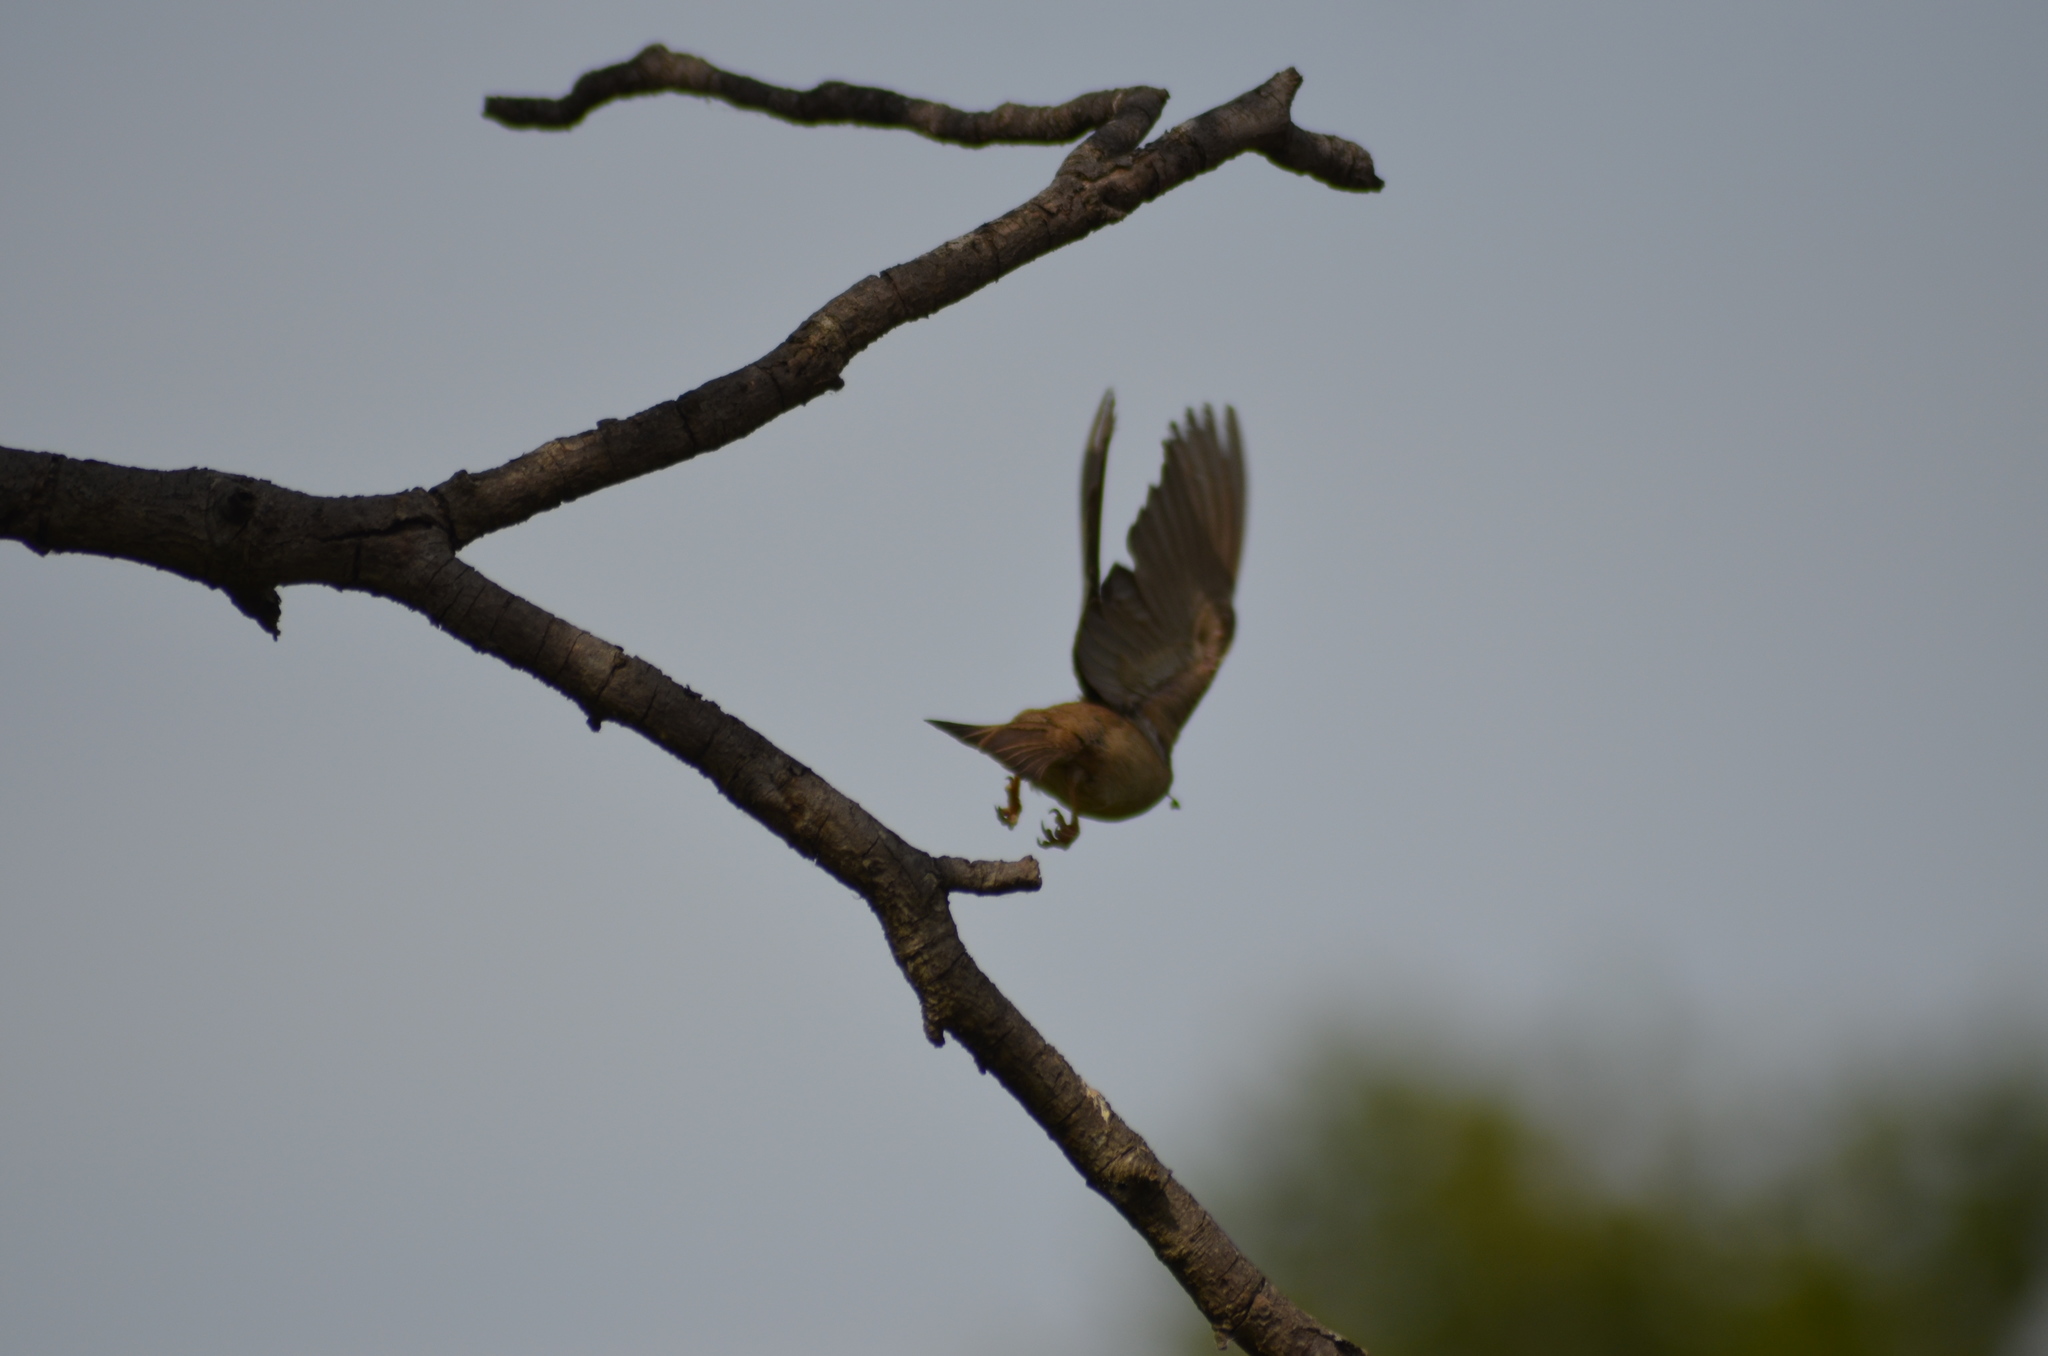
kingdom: Animalia
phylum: Chordata
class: Aves
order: Passeriformes
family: Passeridae
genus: Passer
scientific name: Passer domesticus
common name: House sparrow
